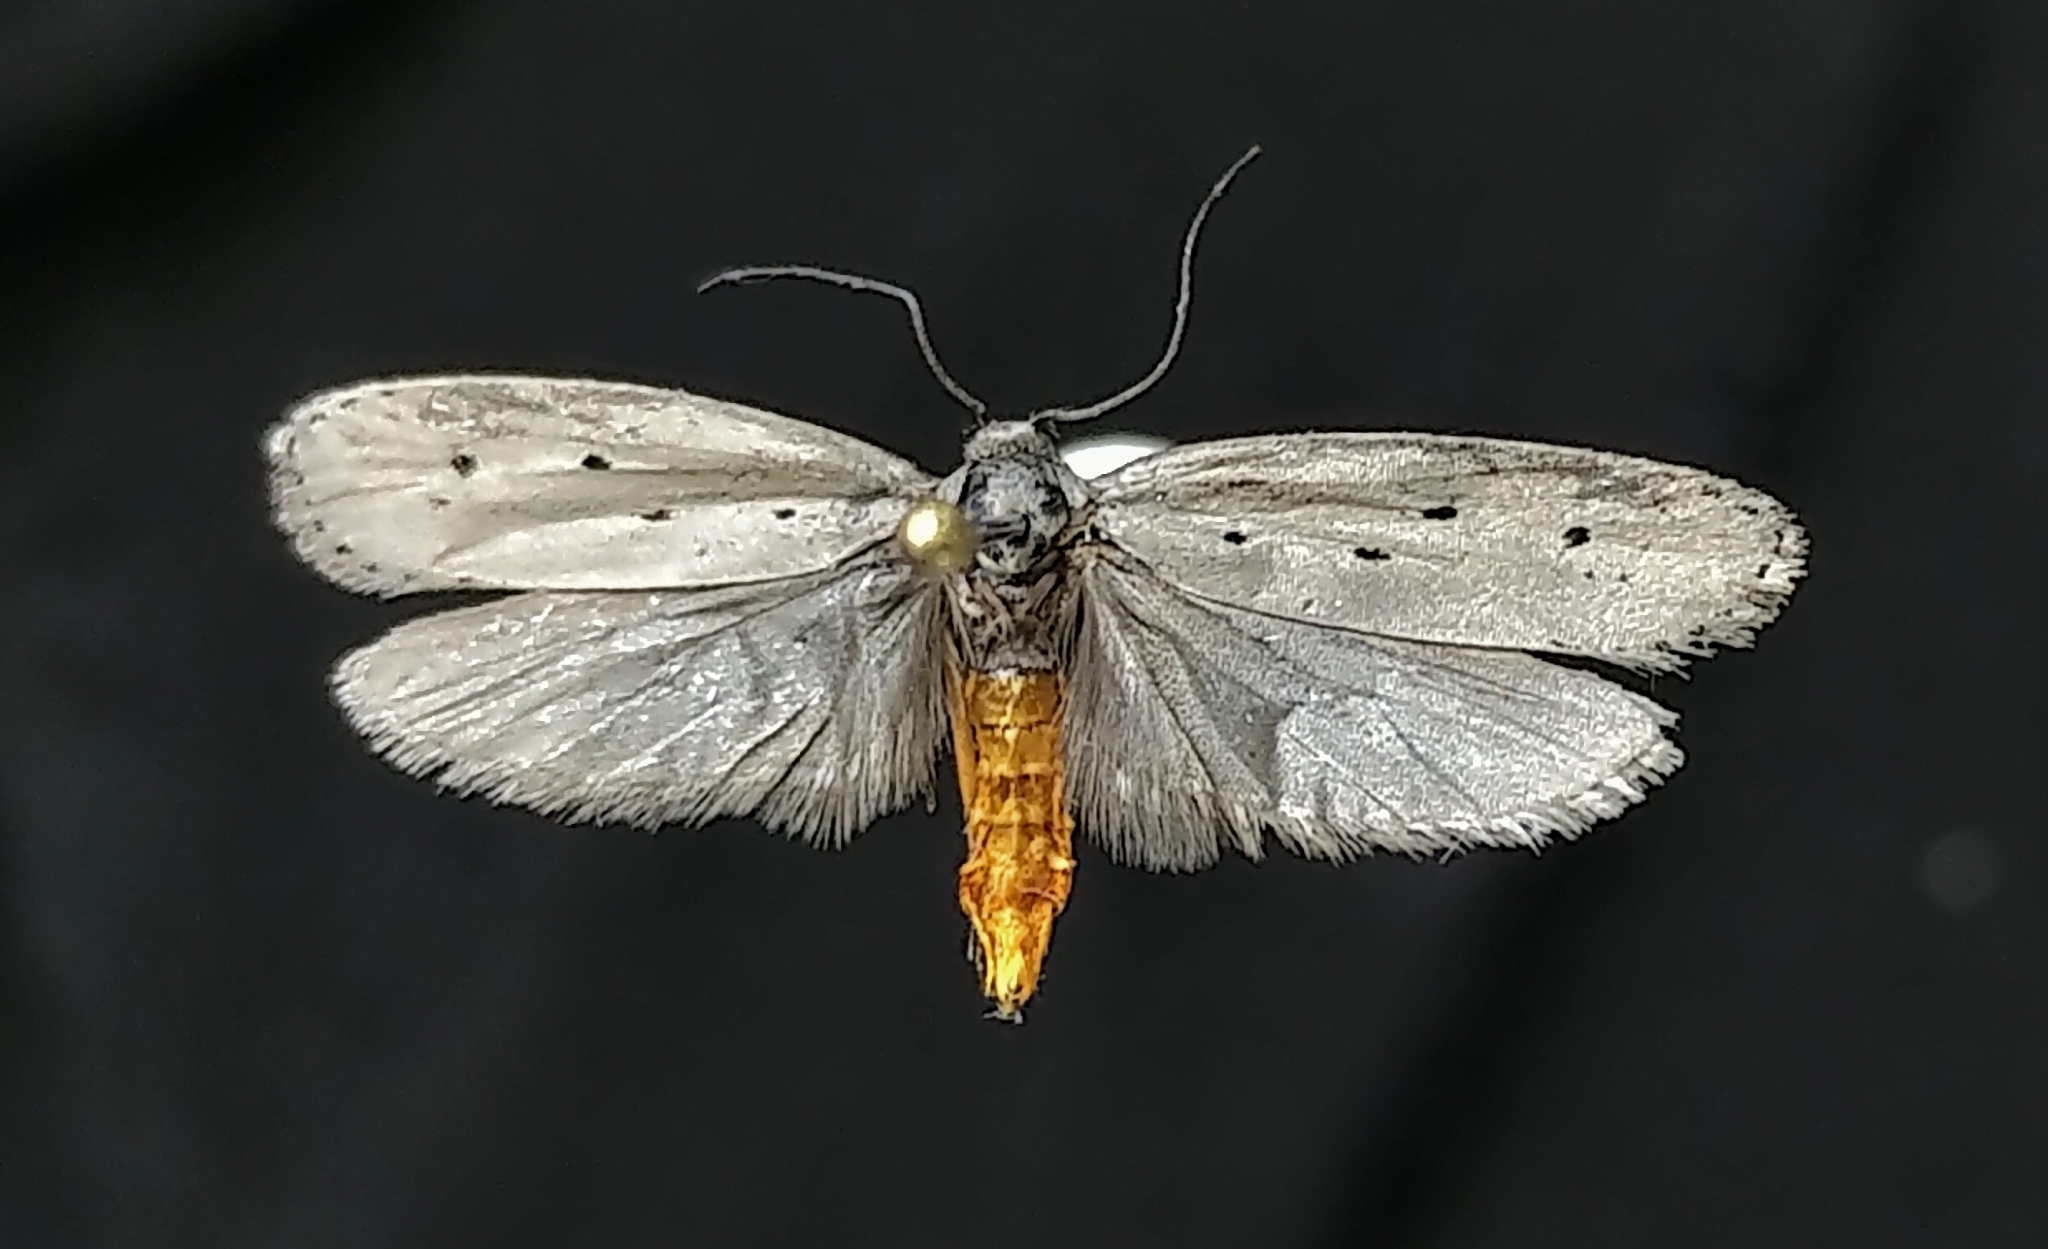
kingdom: Animalia
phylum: Arthropoda
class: Insecta
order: Lepidoptera
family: Ethmiidae
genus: Ethmia
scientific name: Ethmia monticola
